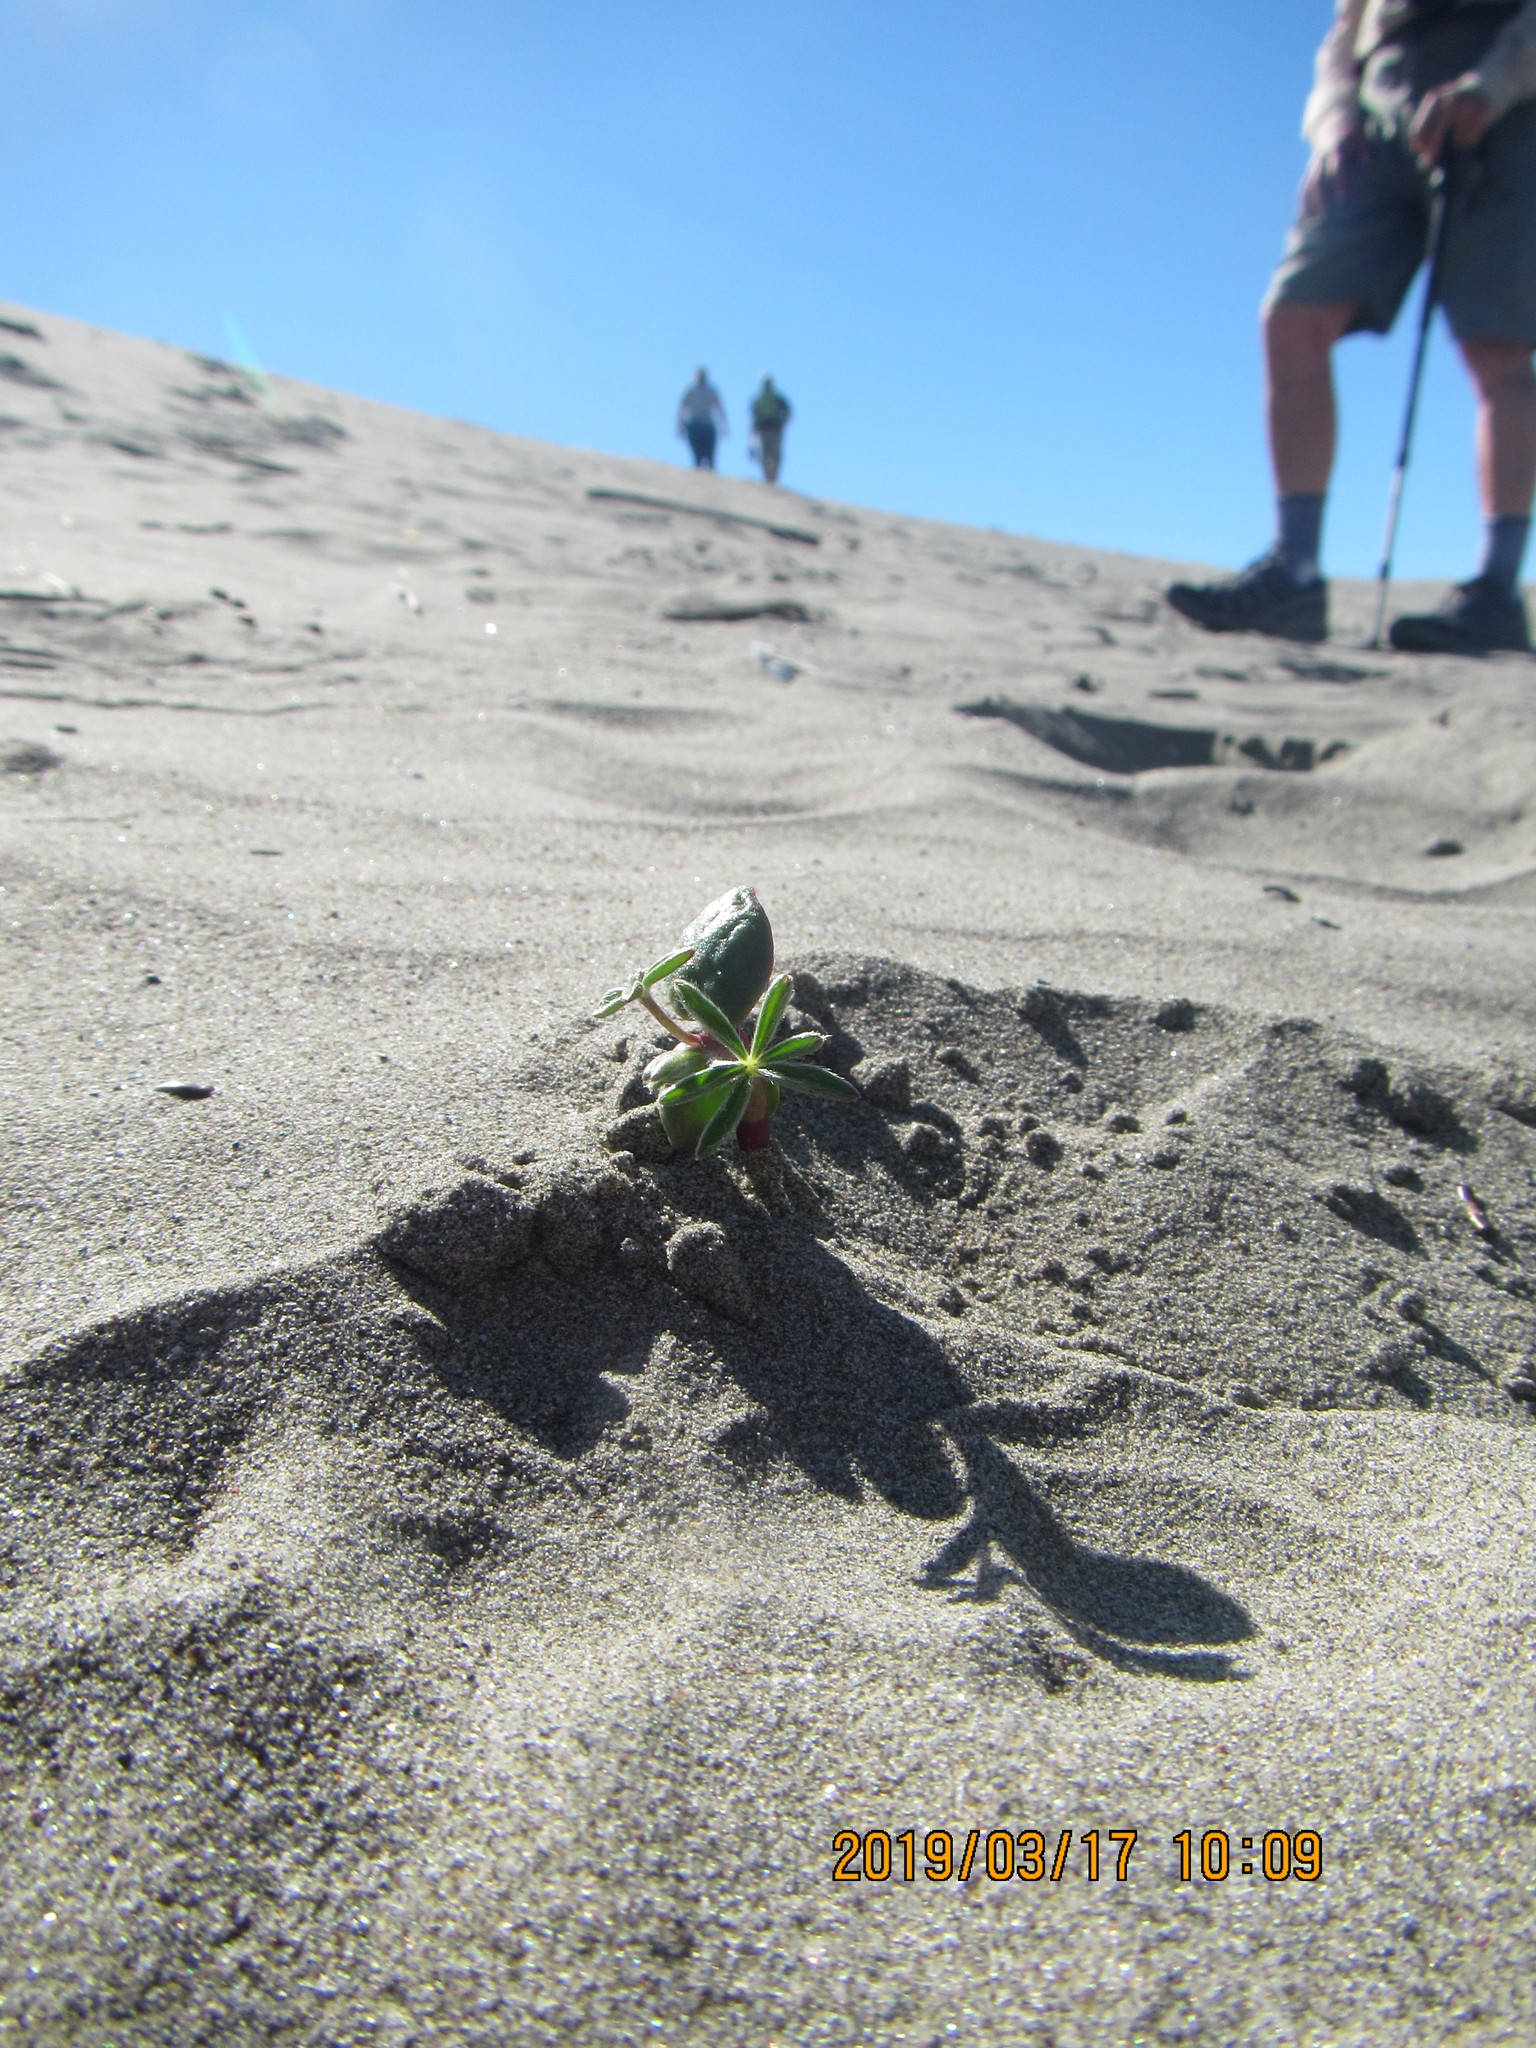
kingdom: Plantae
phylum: Tracheophyta
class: Magnoliopsida
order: Fabales
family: Fabaceae
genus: Lupinus
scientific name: Lupinus arboreus
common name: Yellow bush lupine
